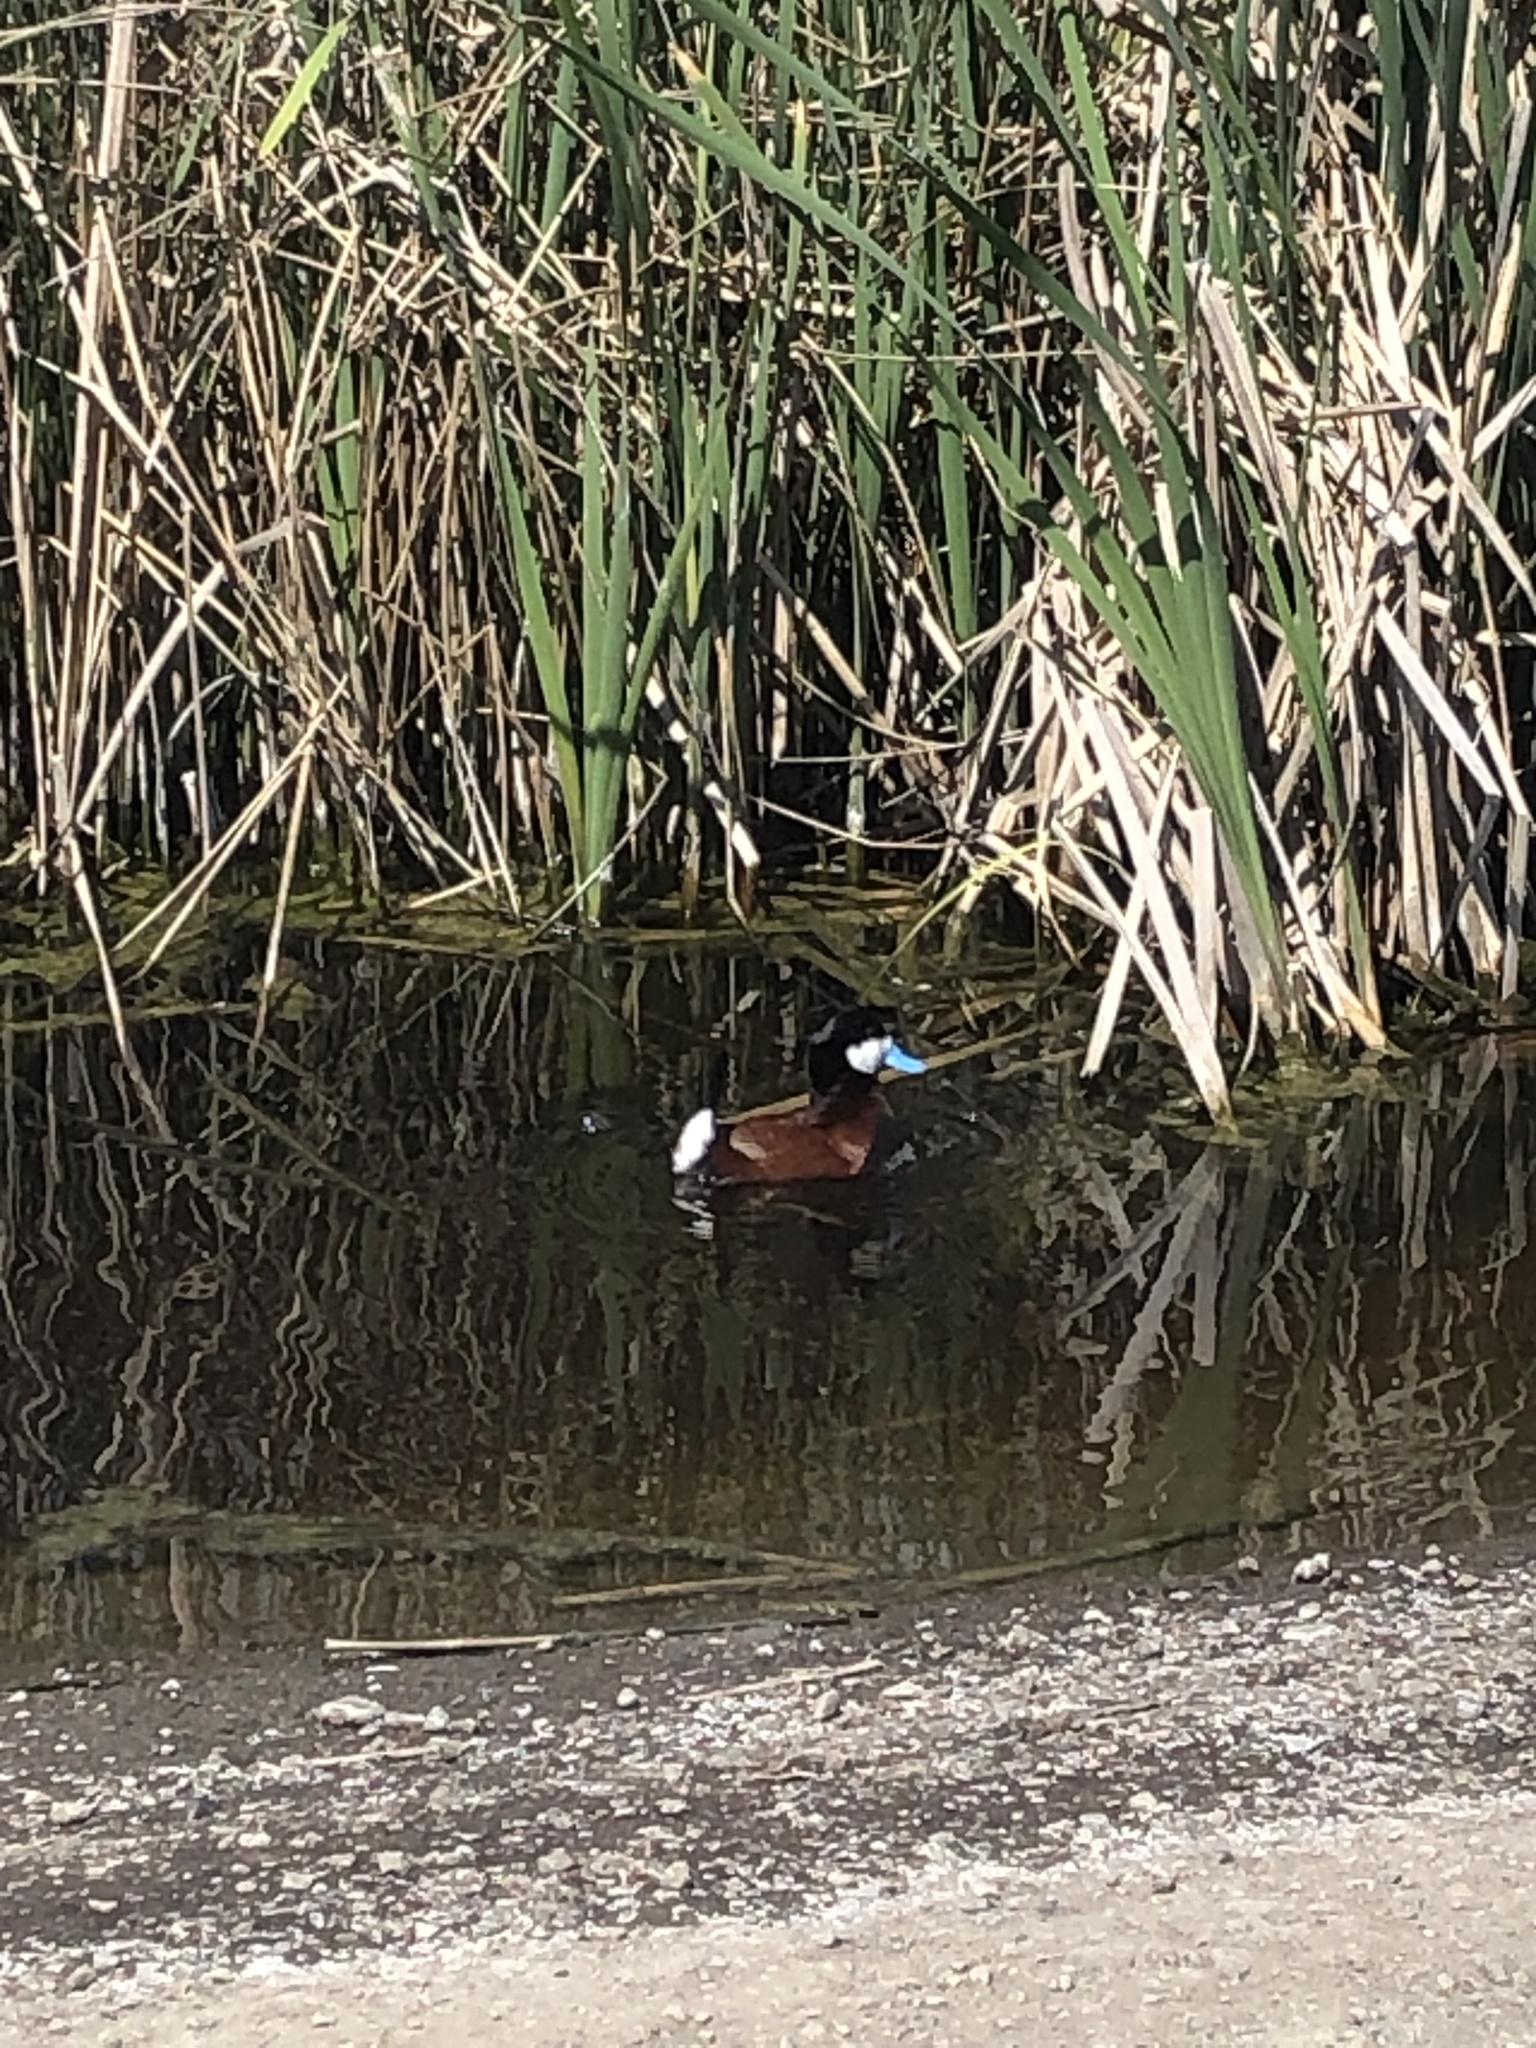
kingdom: Animalia
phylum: Chordata
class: Aves
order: Anseriformes
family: Anatidae
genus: Oxyura
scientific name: Oxyura jamaicensis
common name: Ruddy duck
